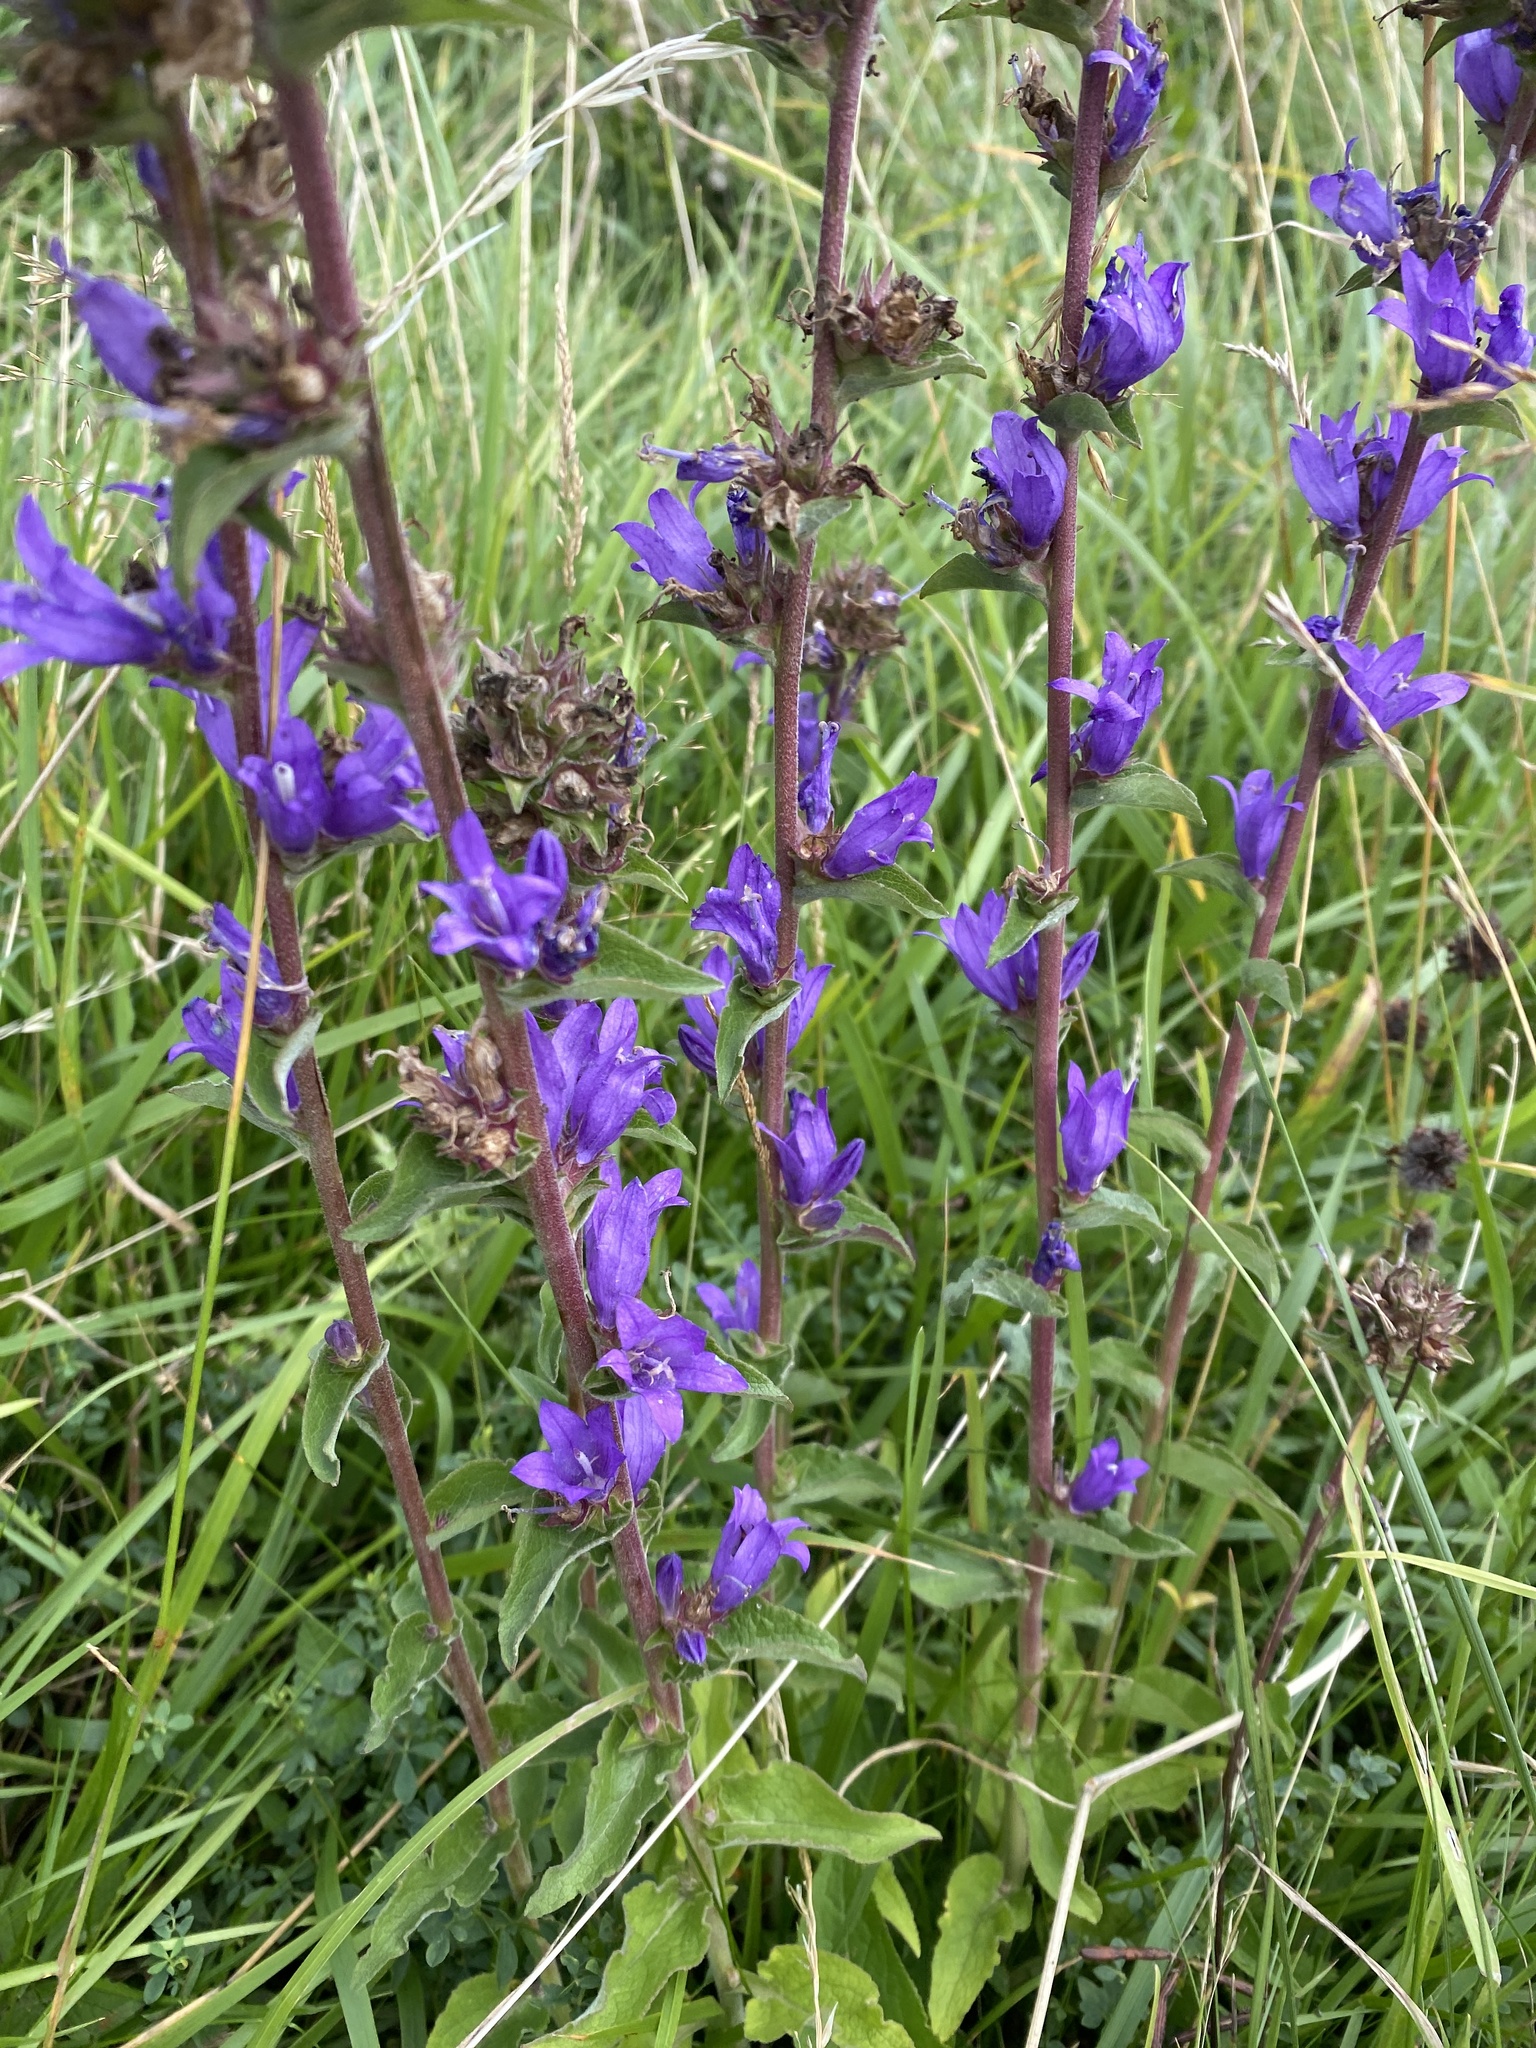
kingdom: Plantae
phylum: Tracheophyta
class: Magnoliopsida
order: Asterales
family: Campanulaceae
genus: Campanula
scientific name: Campanula glomerata
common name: Clustered bellflower
